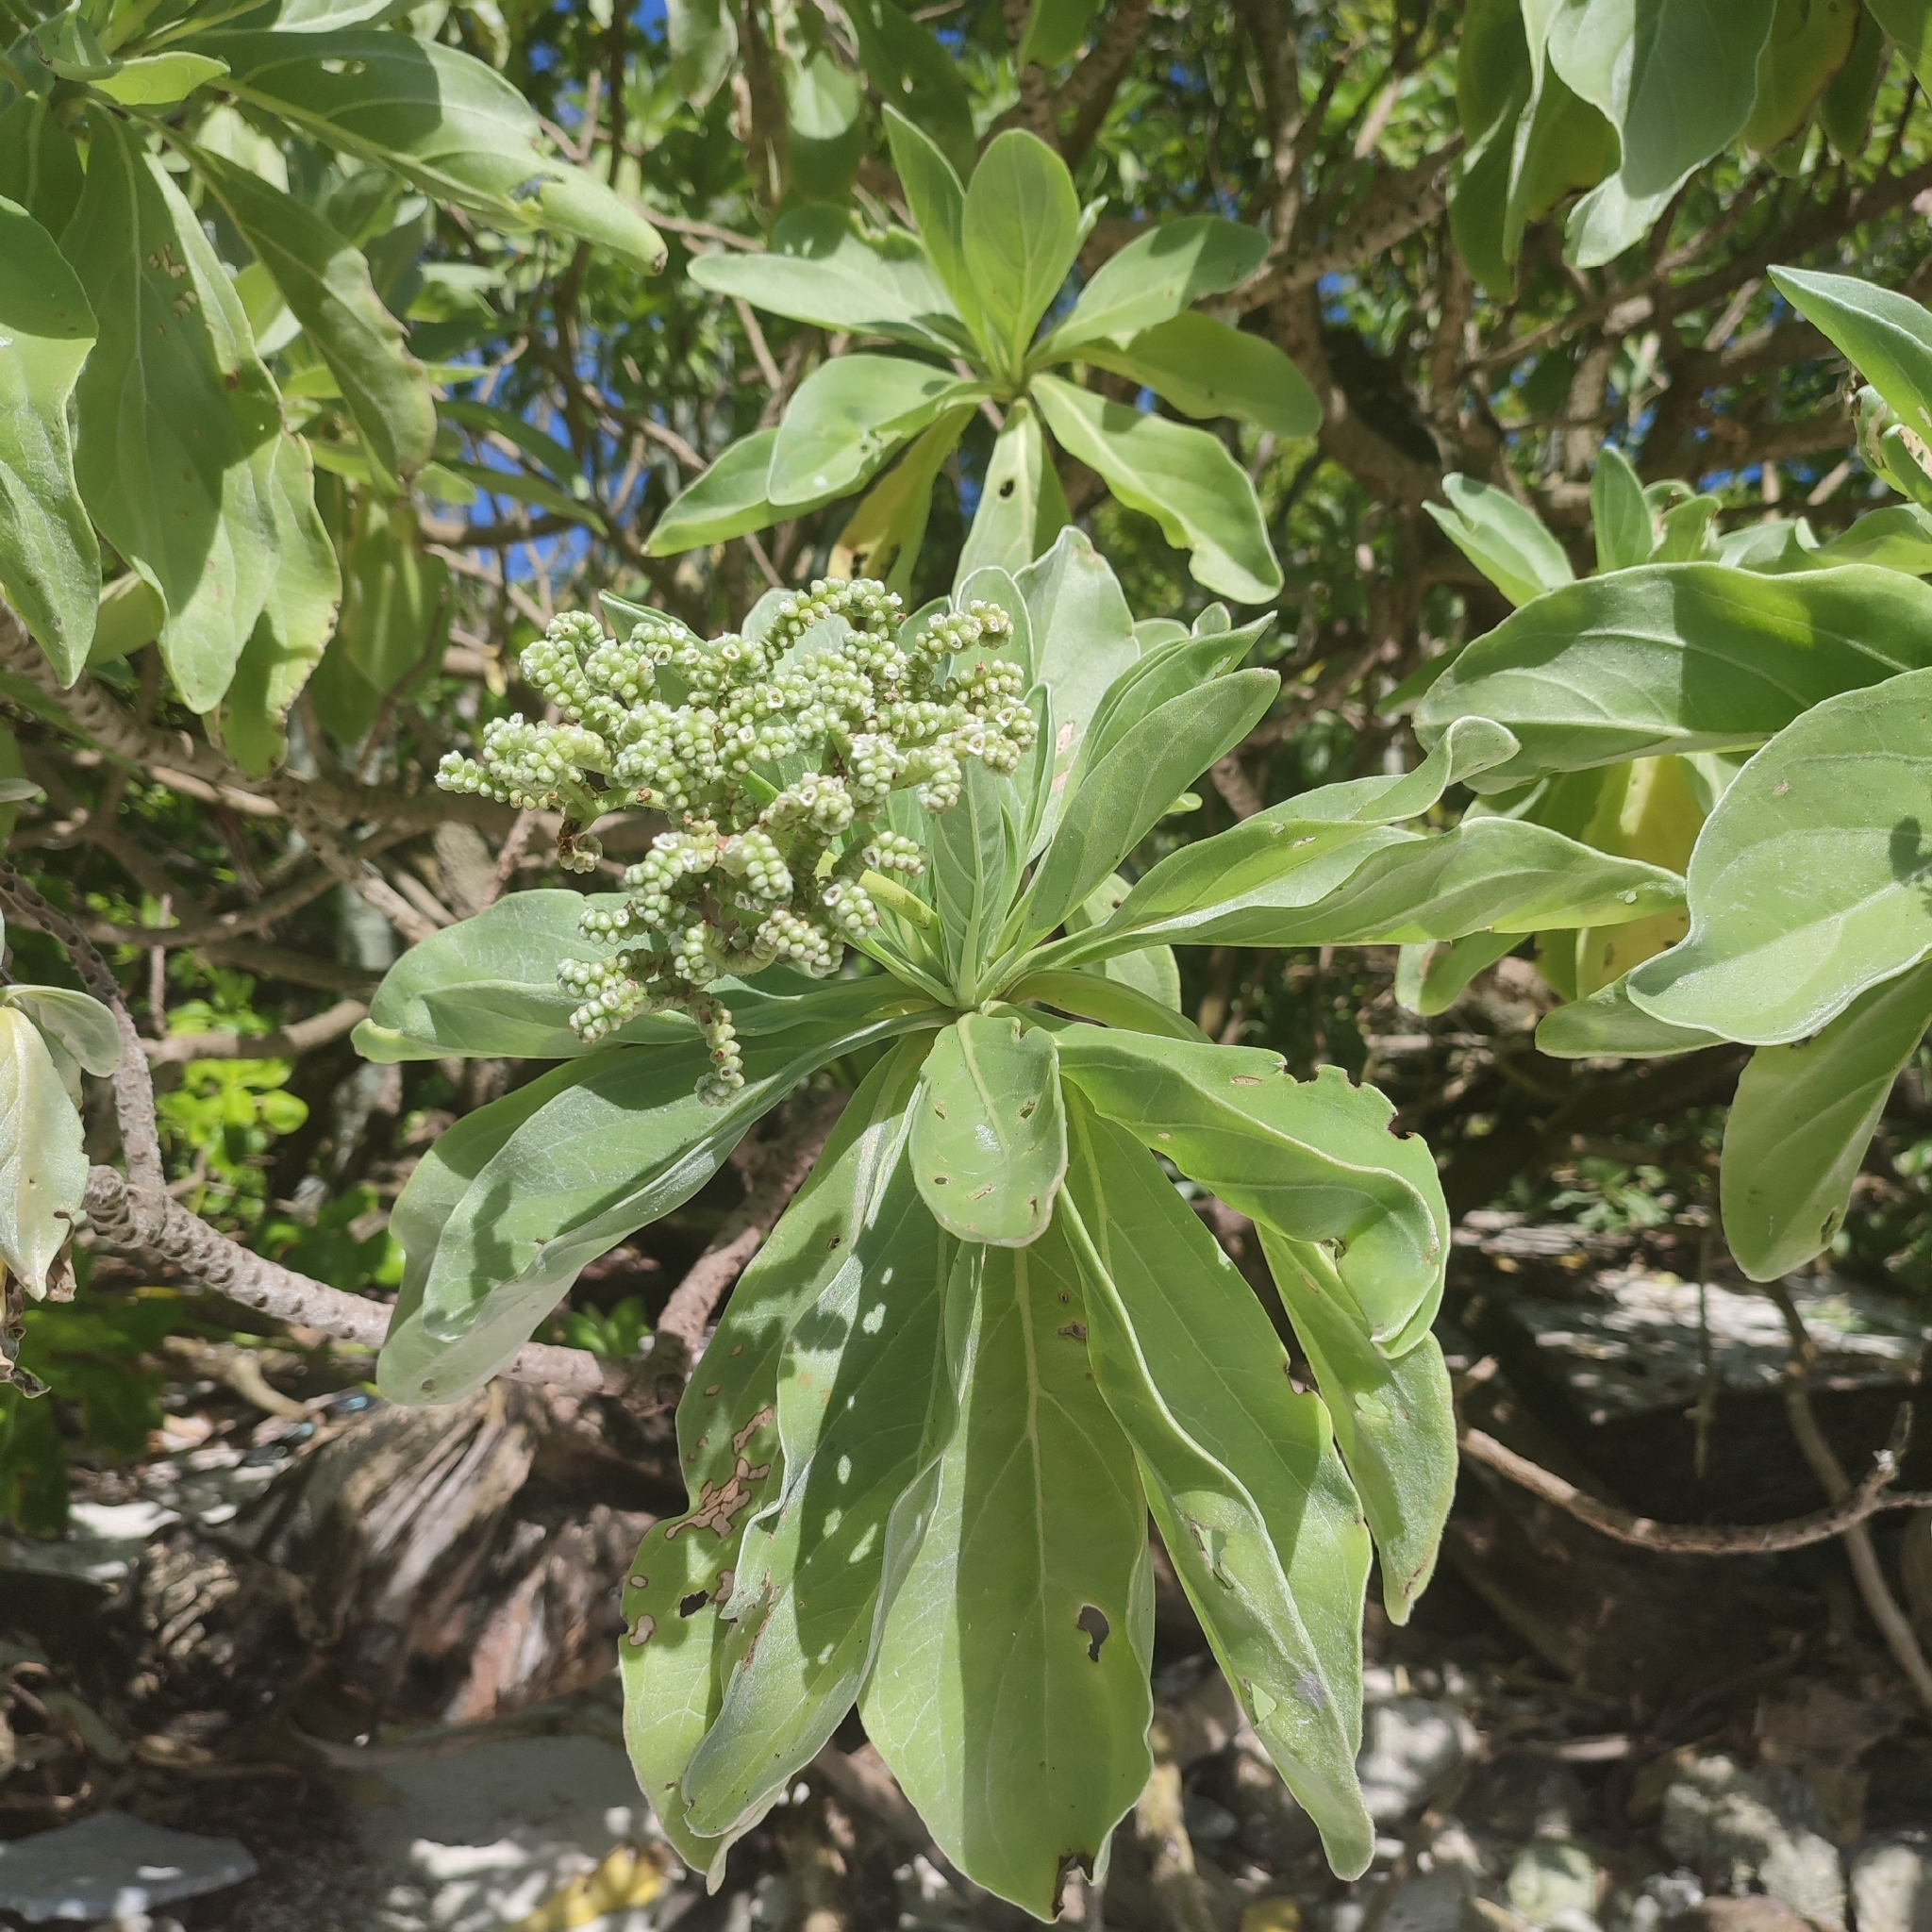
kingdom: Plantae
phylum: Tracheophyta
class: Magnoliopsida
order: Boraginales
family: Heliotropiaceae
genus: Heliotropium
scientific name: Heliotropium velutinum
